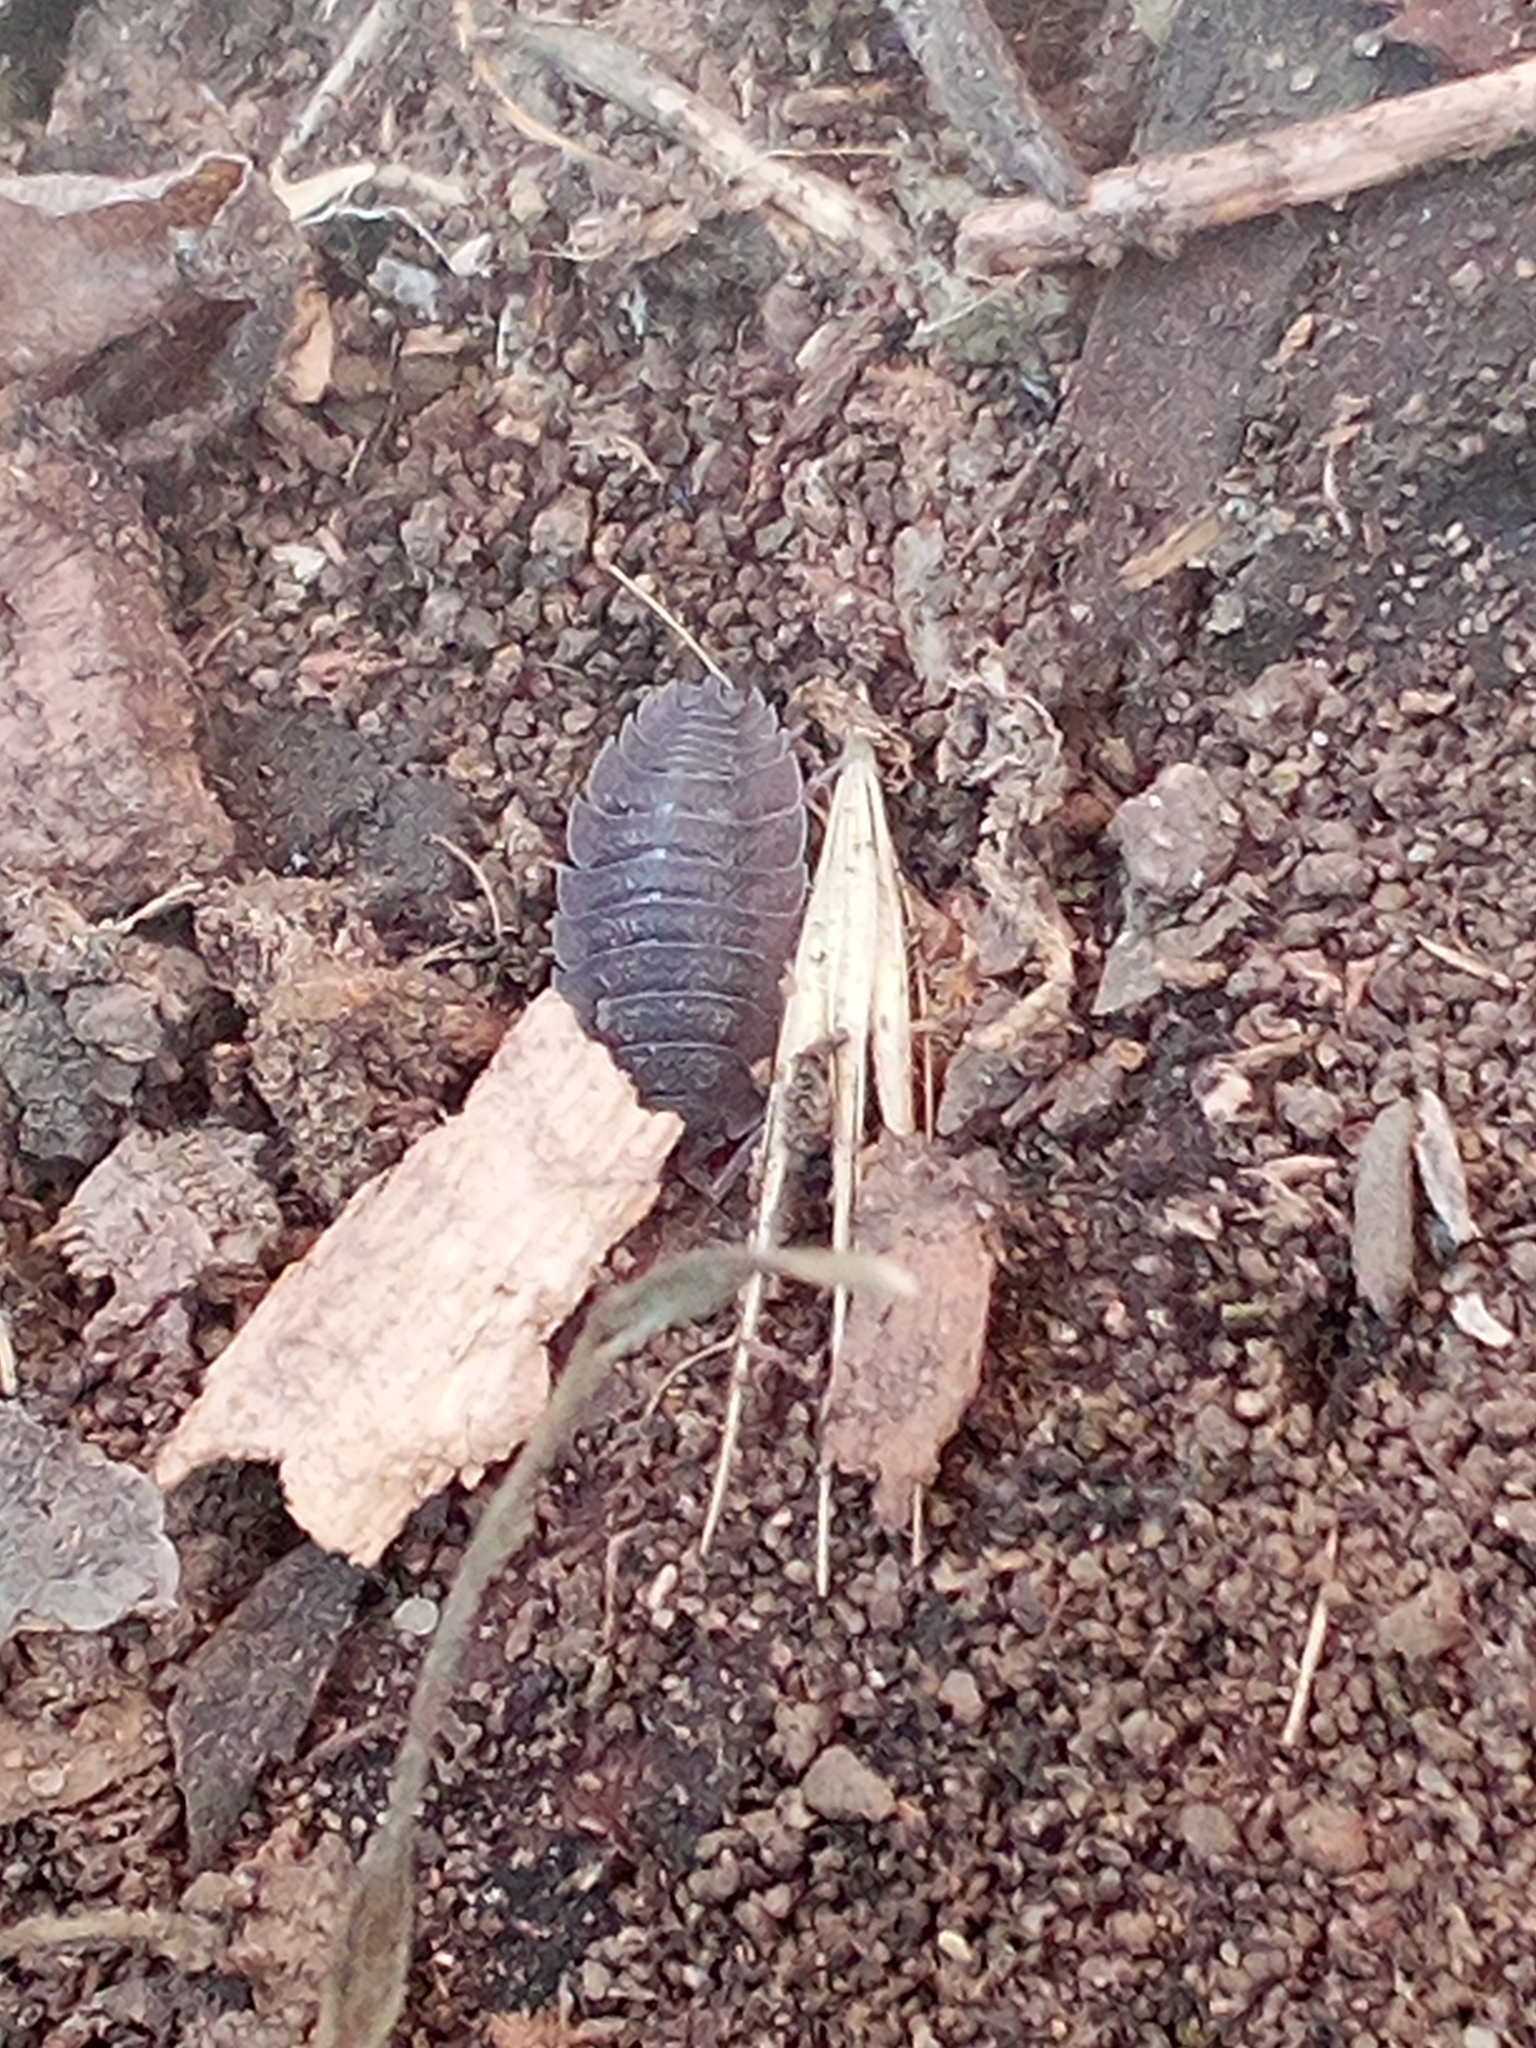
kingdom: Animalia
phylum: Arthropoda
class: Malacostraca
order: Isopoda
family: Porcellionidae
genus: Porcellio
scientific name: Porcellio scaber
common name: Common rough woodlouse
